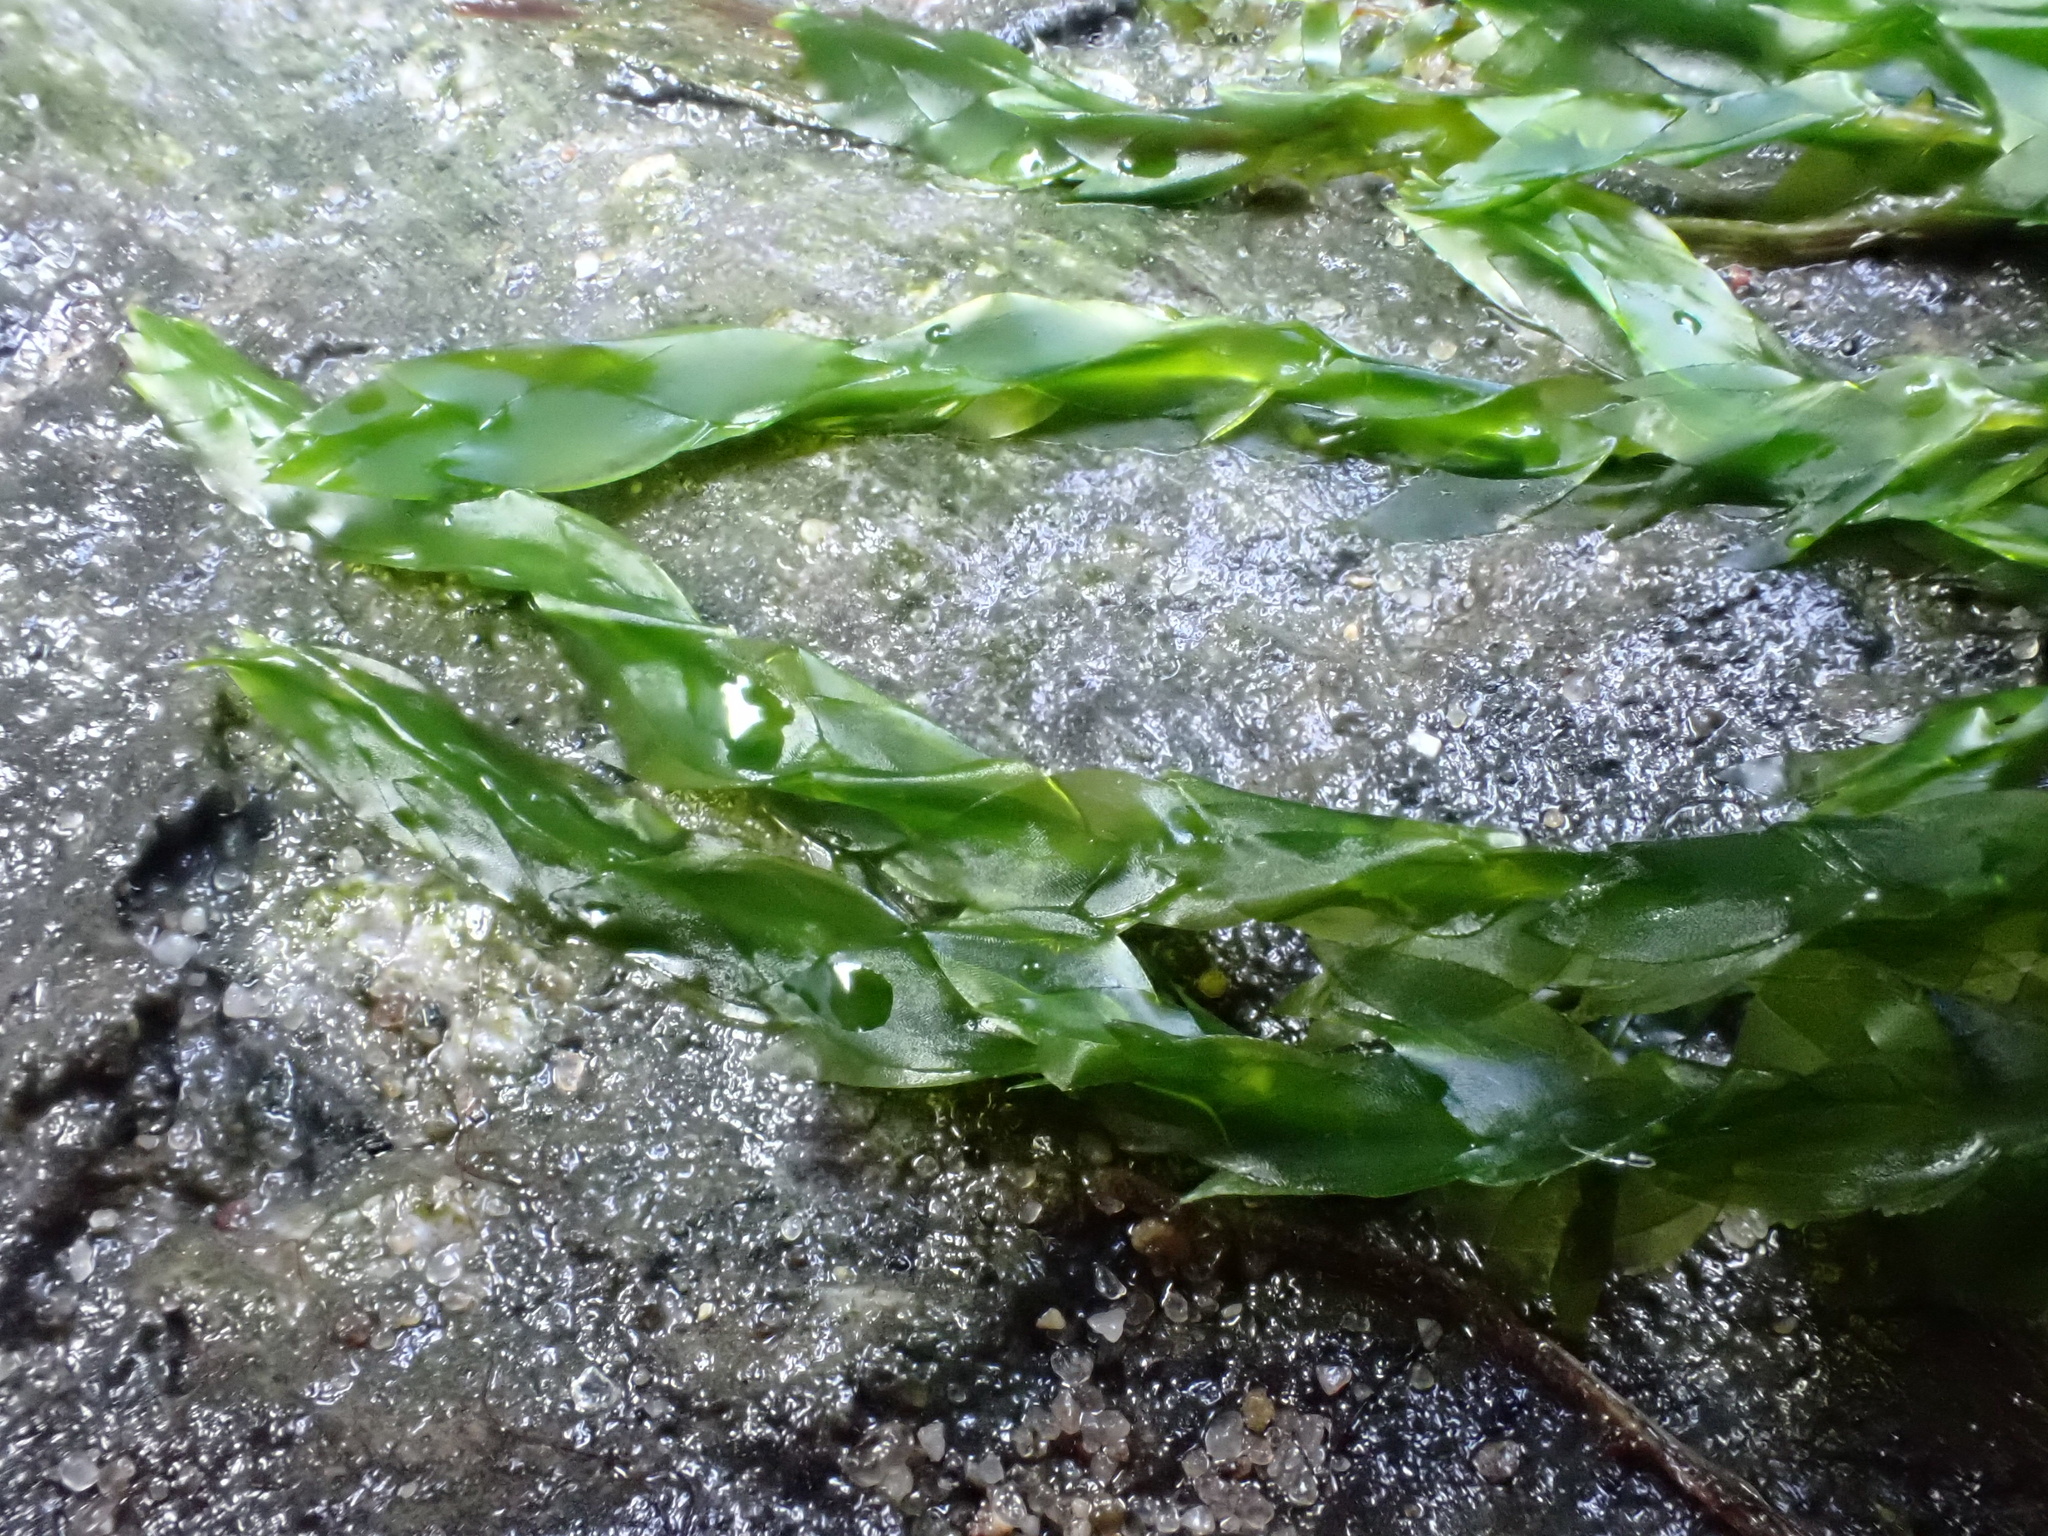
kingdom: Plantae
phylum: Bryophyta
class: Bryopsida
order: Hypnales
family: Fontinalaceae
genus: Fontinalis
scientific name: Fontinalis antipyretica
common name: Greater water-moss
